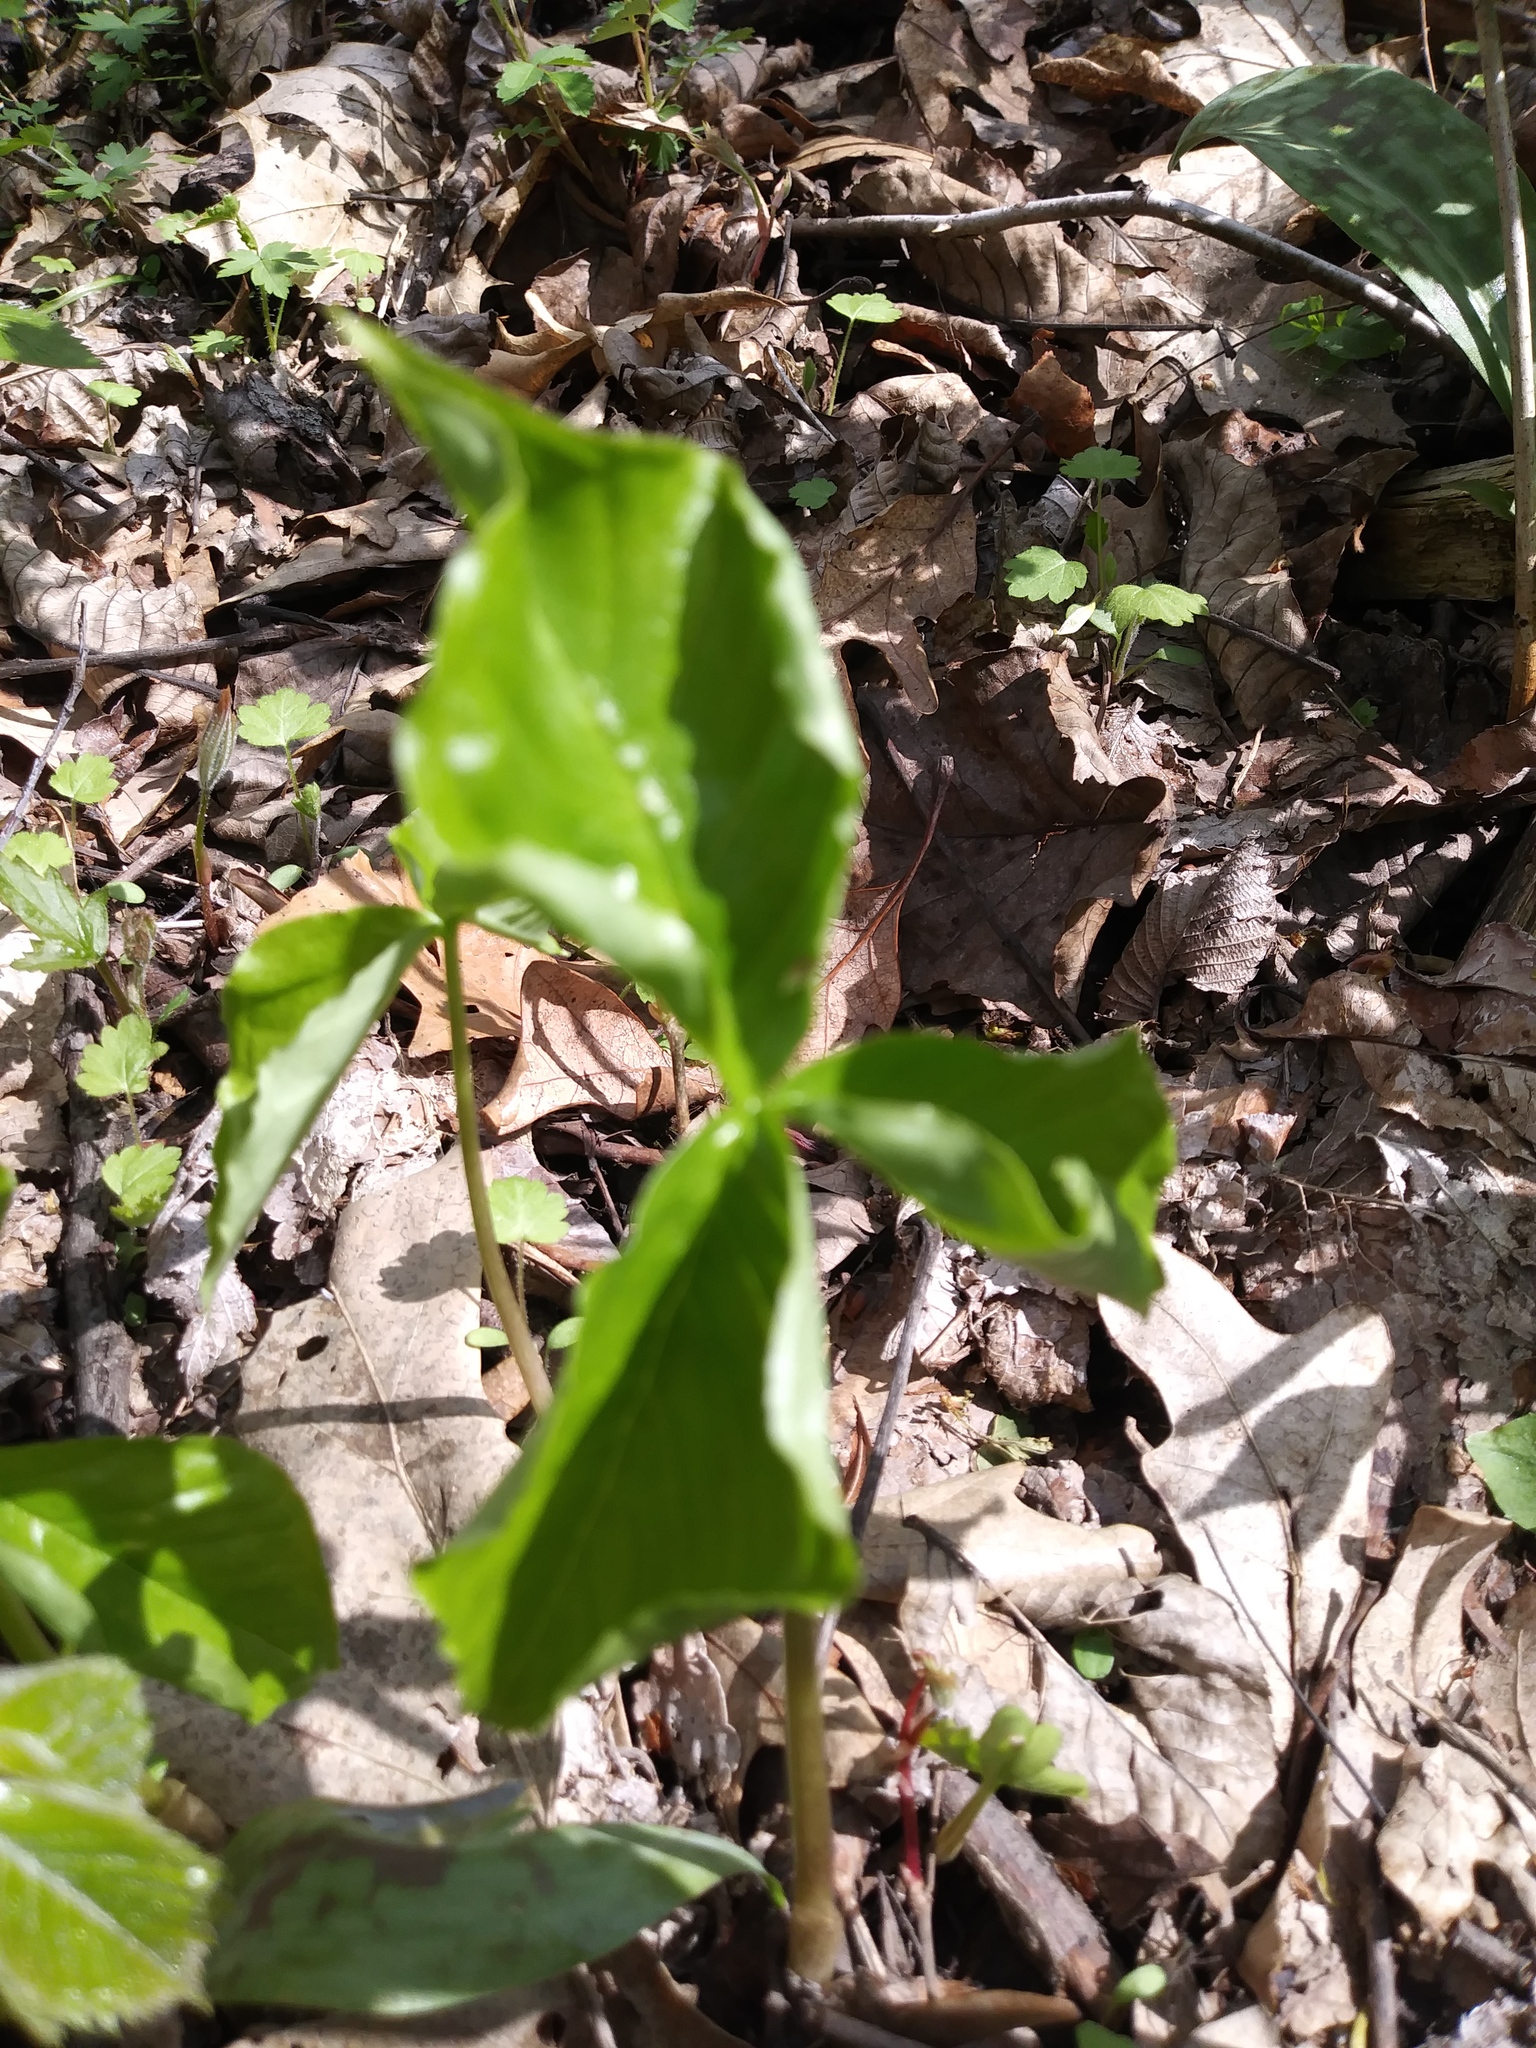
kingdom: Plantae
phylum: Tracheophyta
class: Liliopsida
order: Alismatales
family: Araceae
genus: Arisaema
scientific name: Arisaema triphyllum
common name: Jack-in-the-pulpit
